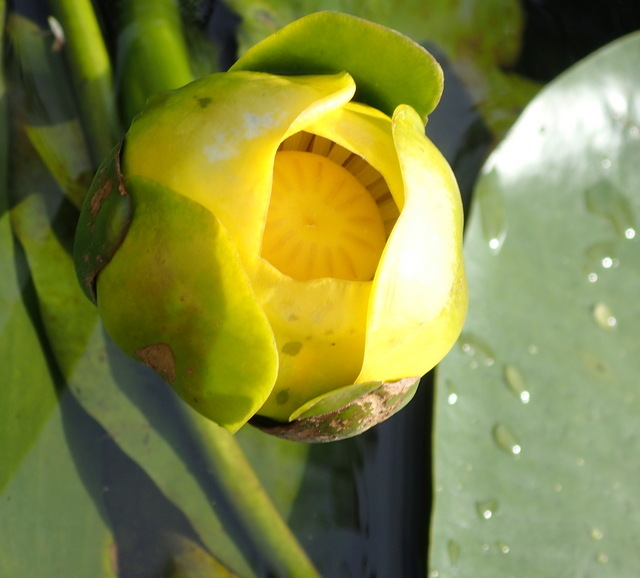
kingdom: Plantae
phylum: Tracheophyta
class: Magnoliopsida
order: Nymphaeales
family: Nymphaeaceae
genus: Nuphar
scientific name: Nuphar advena
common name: Spatter-dock
